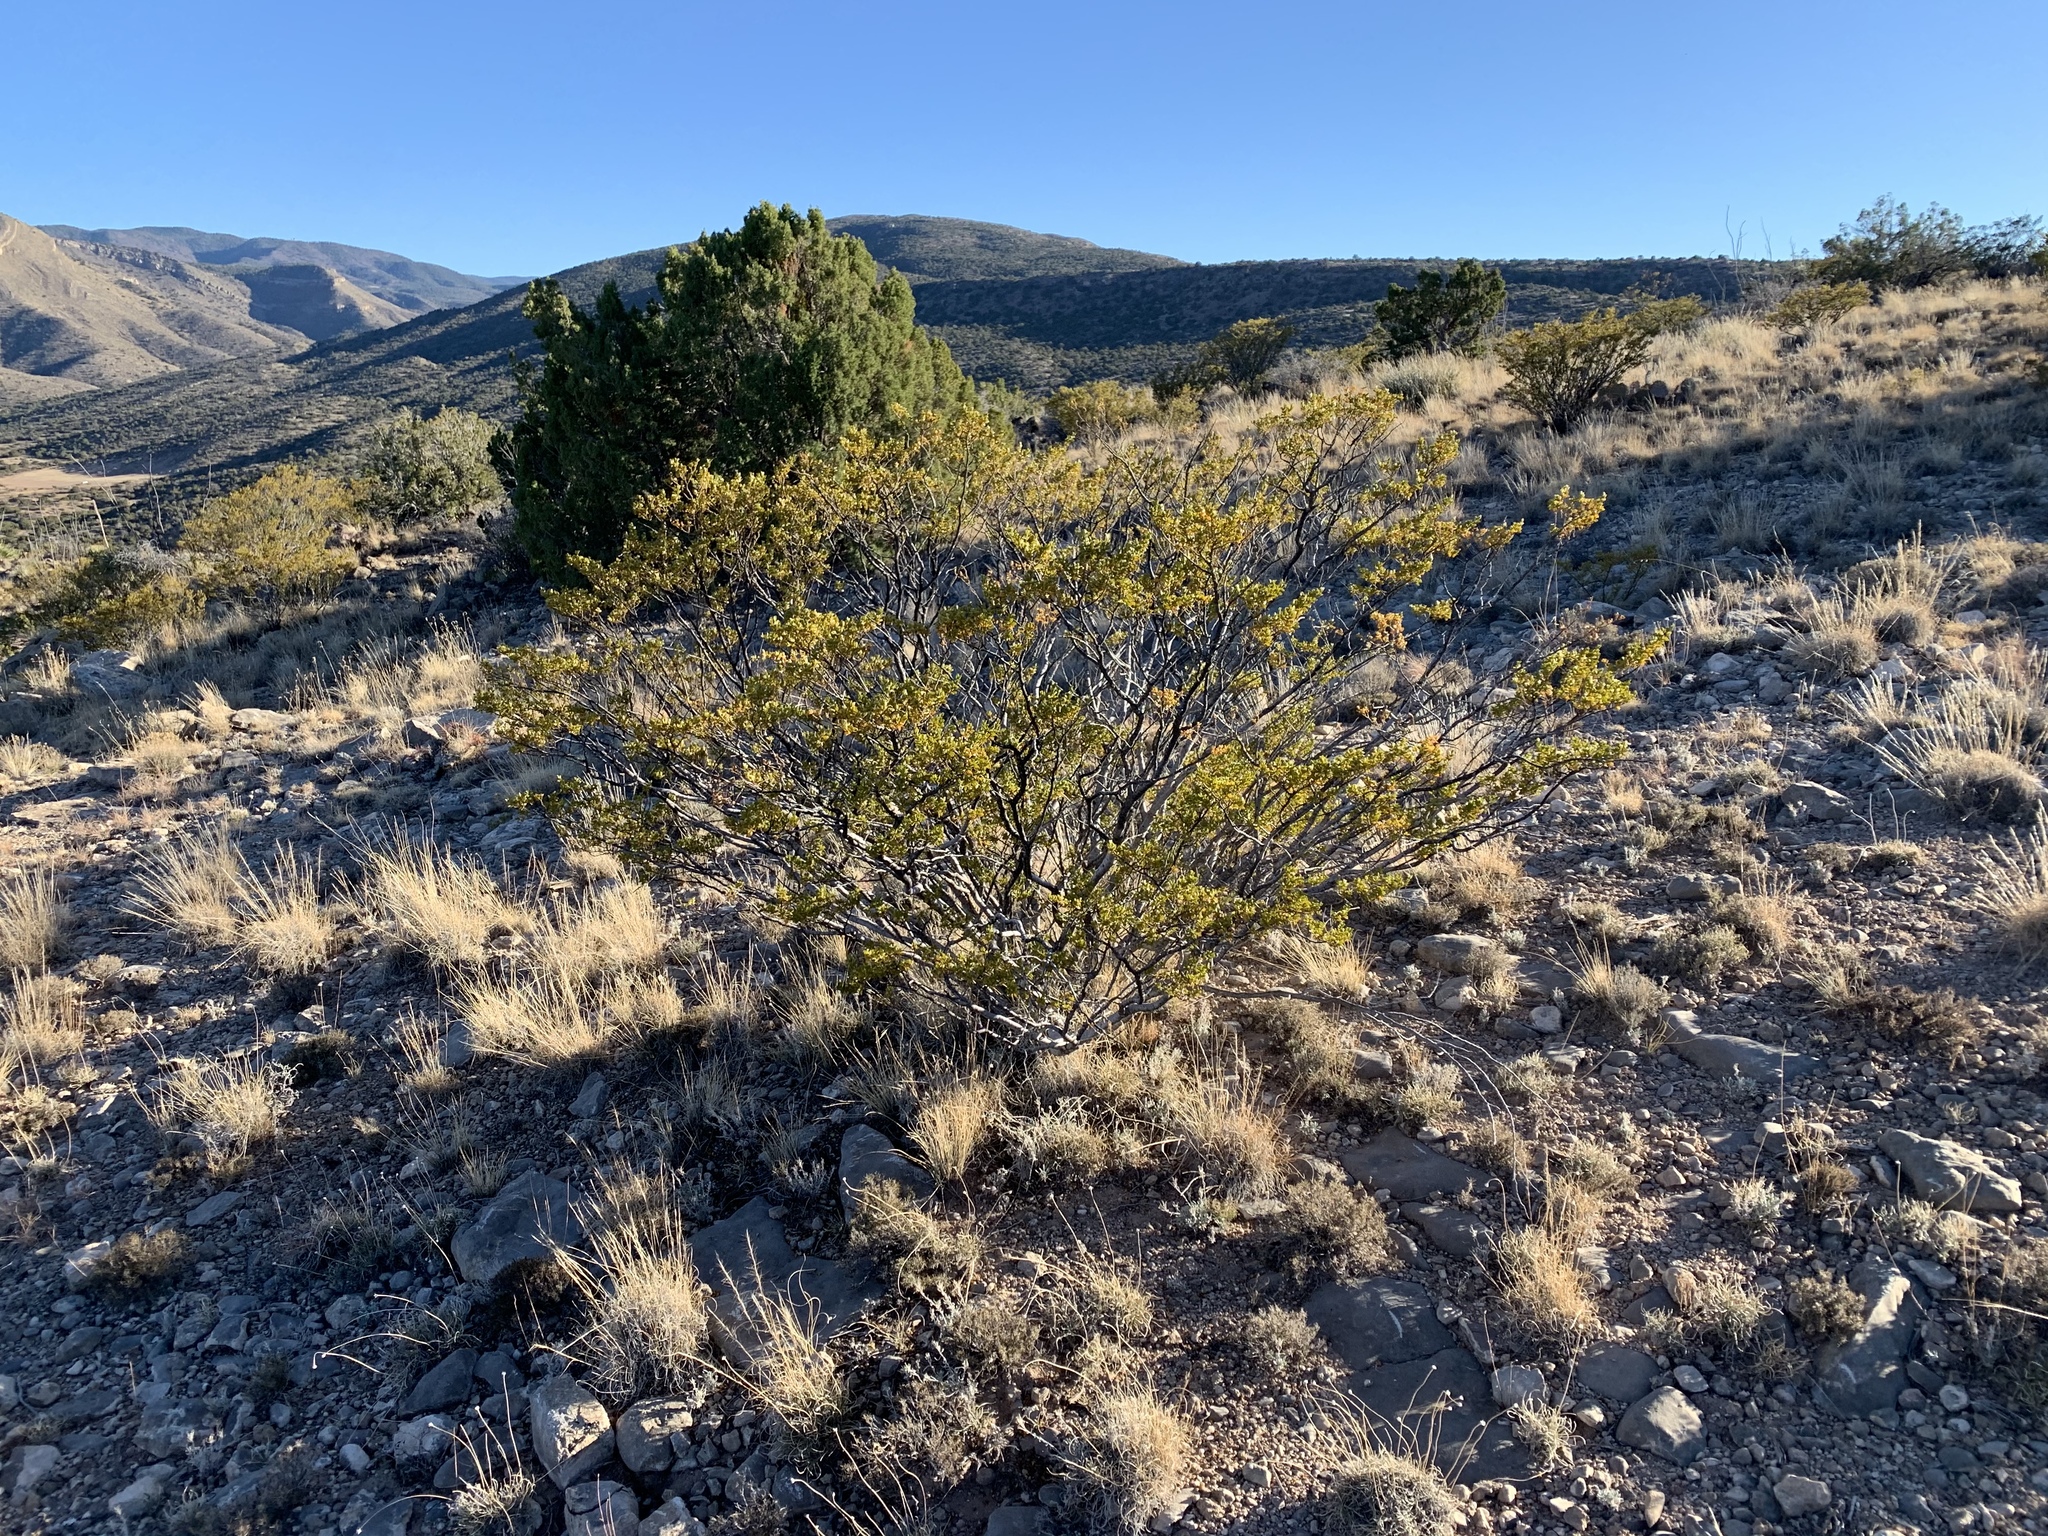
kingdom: Plantae
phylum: Tracheophyta
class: Magnoliopsida
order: Zygophyllales
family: Zygophyllaceae
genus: Larrea
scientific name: Larrea tridentata
